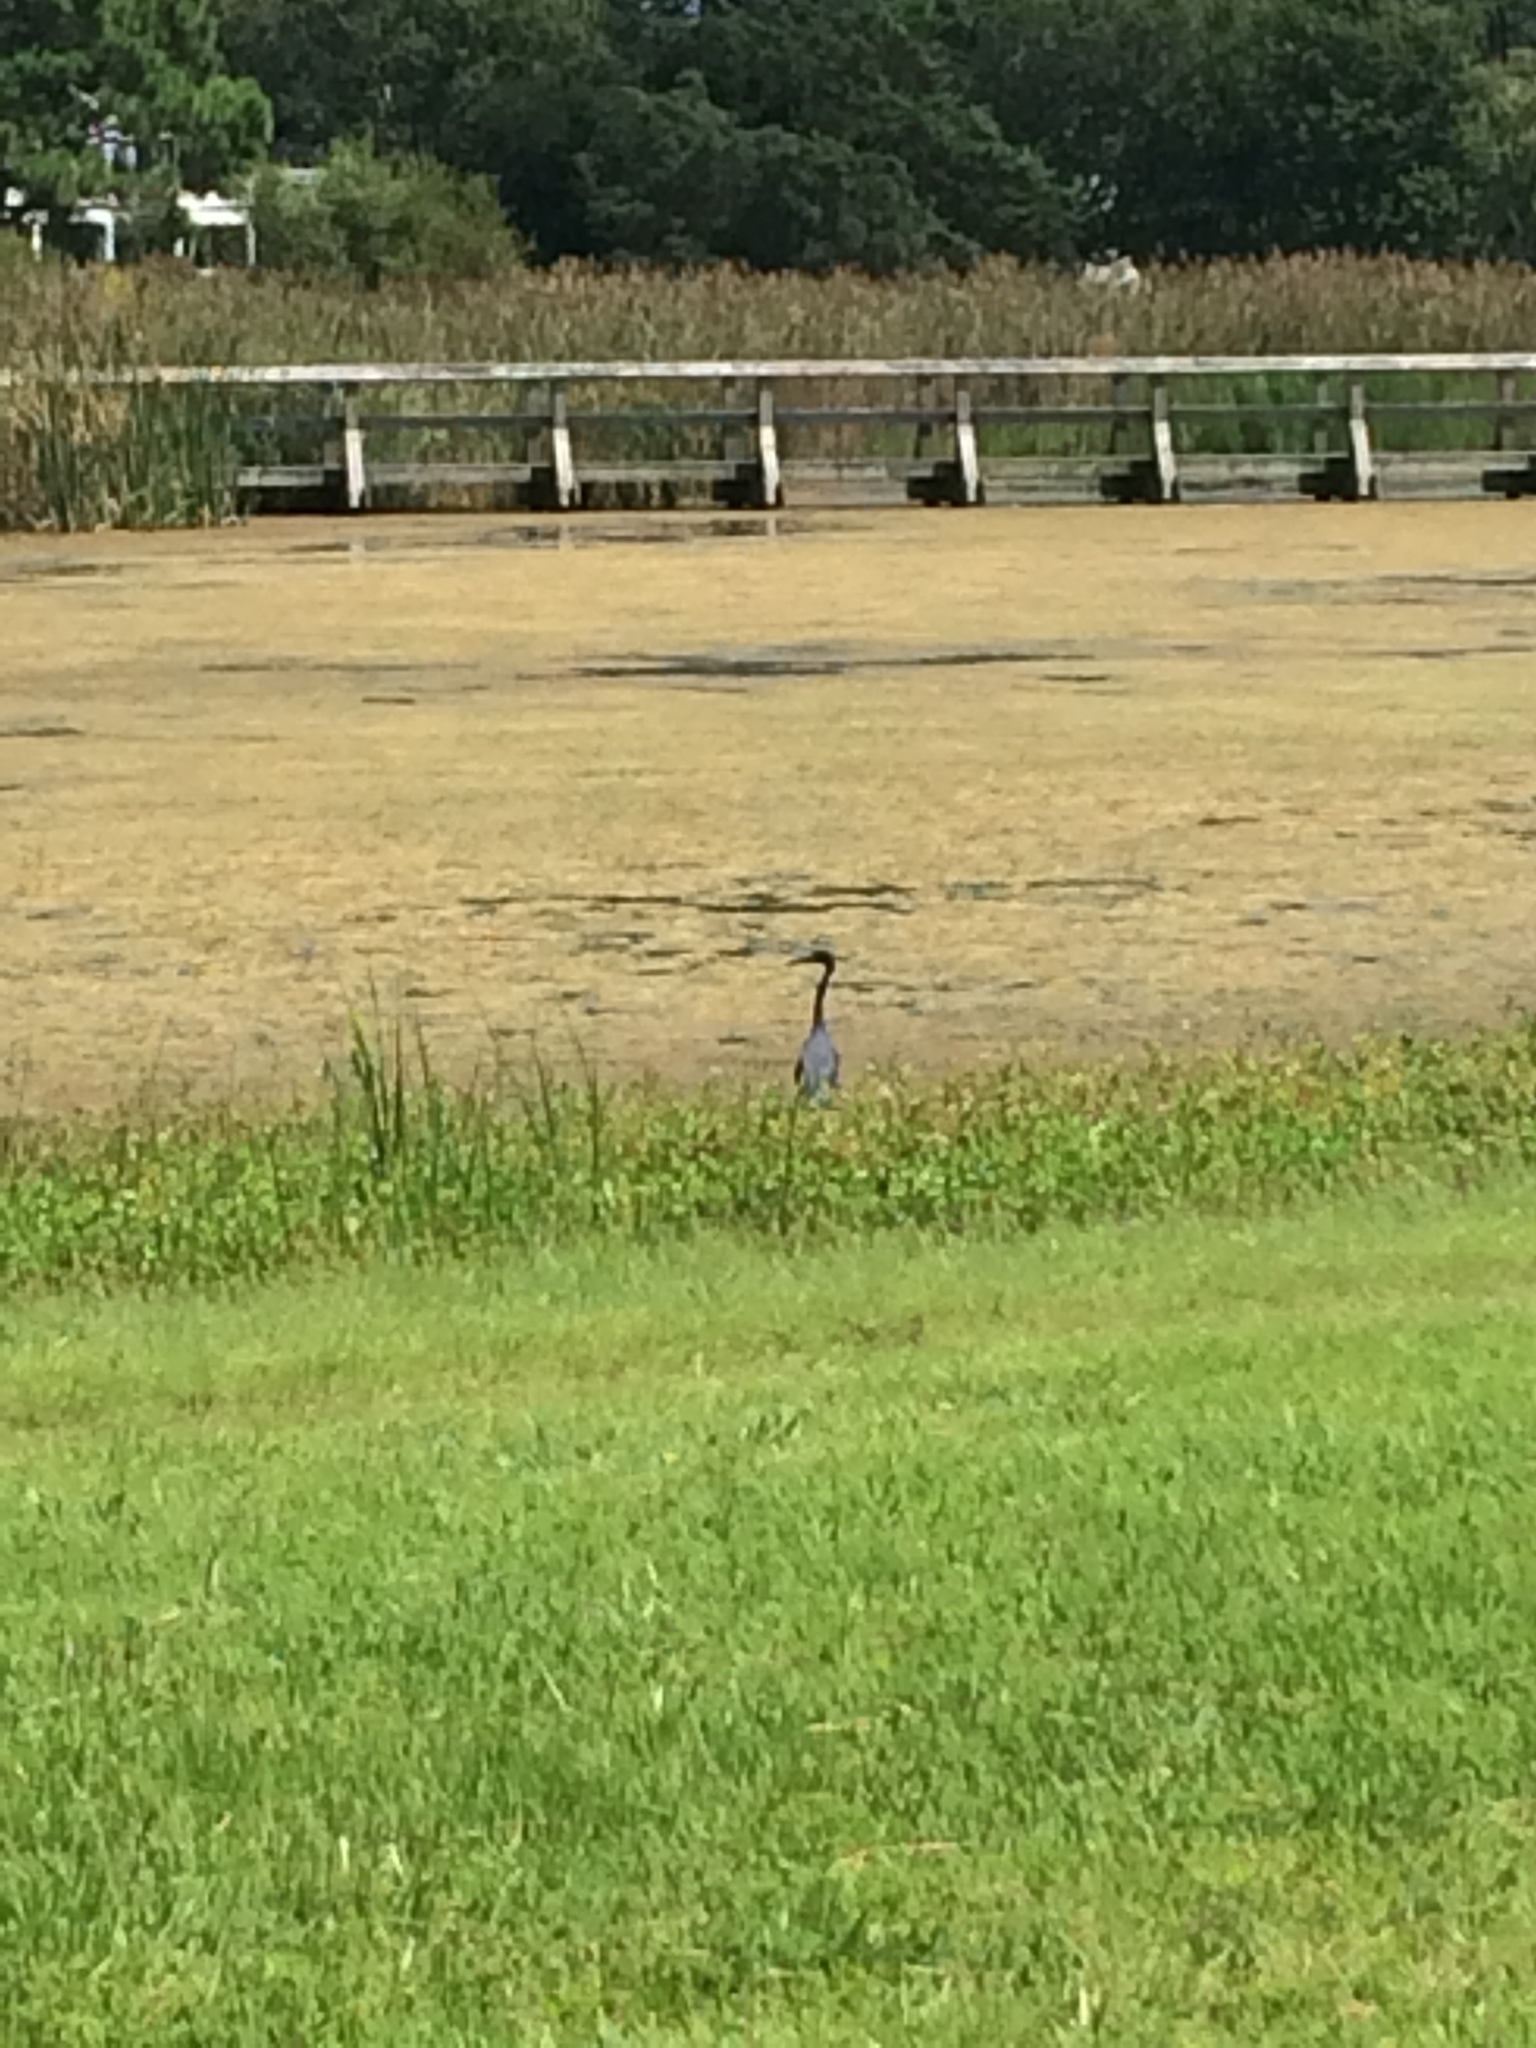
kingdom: Animalia
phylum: Chordata
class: Aves
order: Pelecaniformes
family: Ardeidae
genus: Egretta
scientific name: Egretta caerulea
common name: Little blue heron
